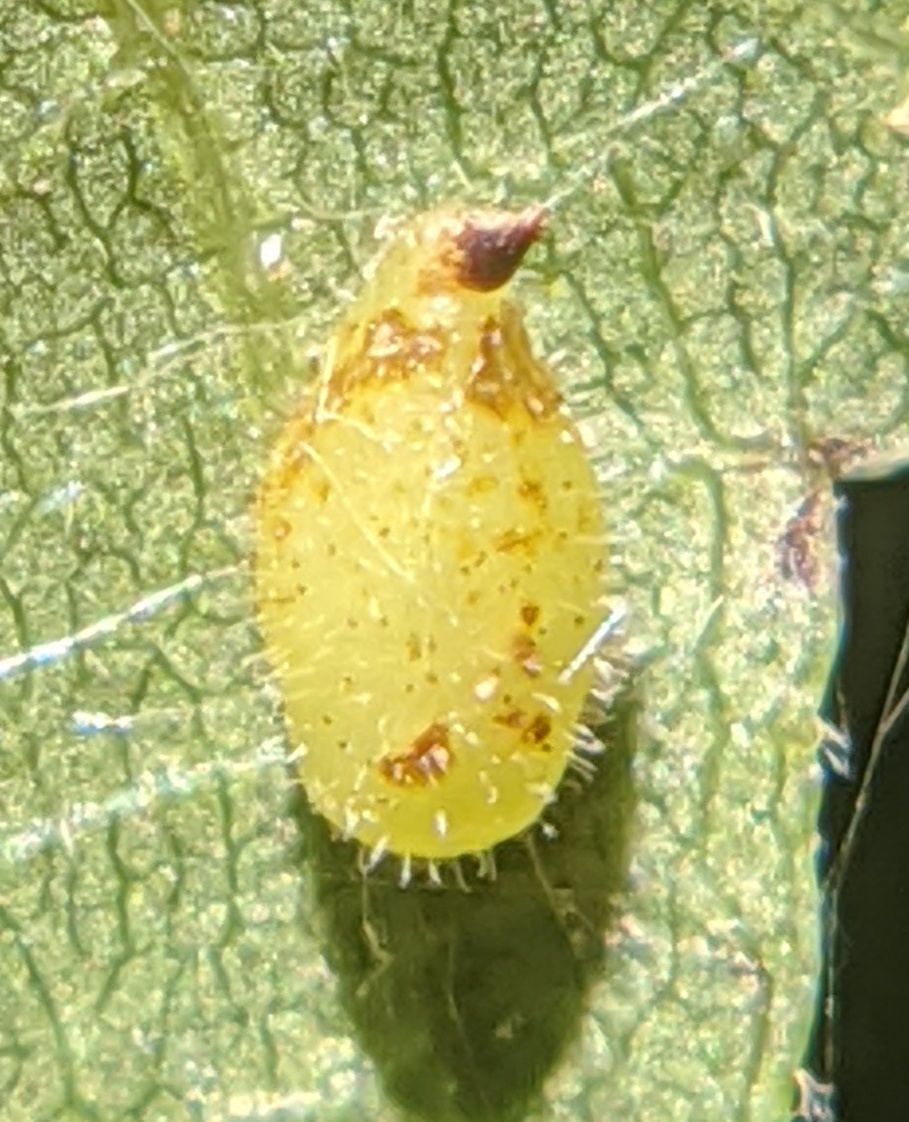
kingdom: Animalia
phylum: Arthropoda
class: Insecta
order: Diptera
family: Cecidomyiidae
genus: Caryomyia
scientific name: Caryomyia eumaris
